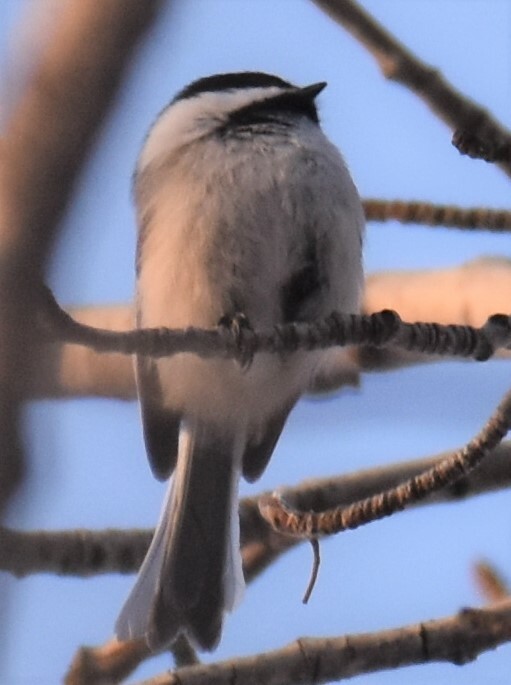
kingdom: Animalia
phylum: Chordata
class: Aves
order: Passeriformes
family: Paridae
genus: Poecile
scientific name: Poecile atricapillus
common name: Black-capped chickadee
